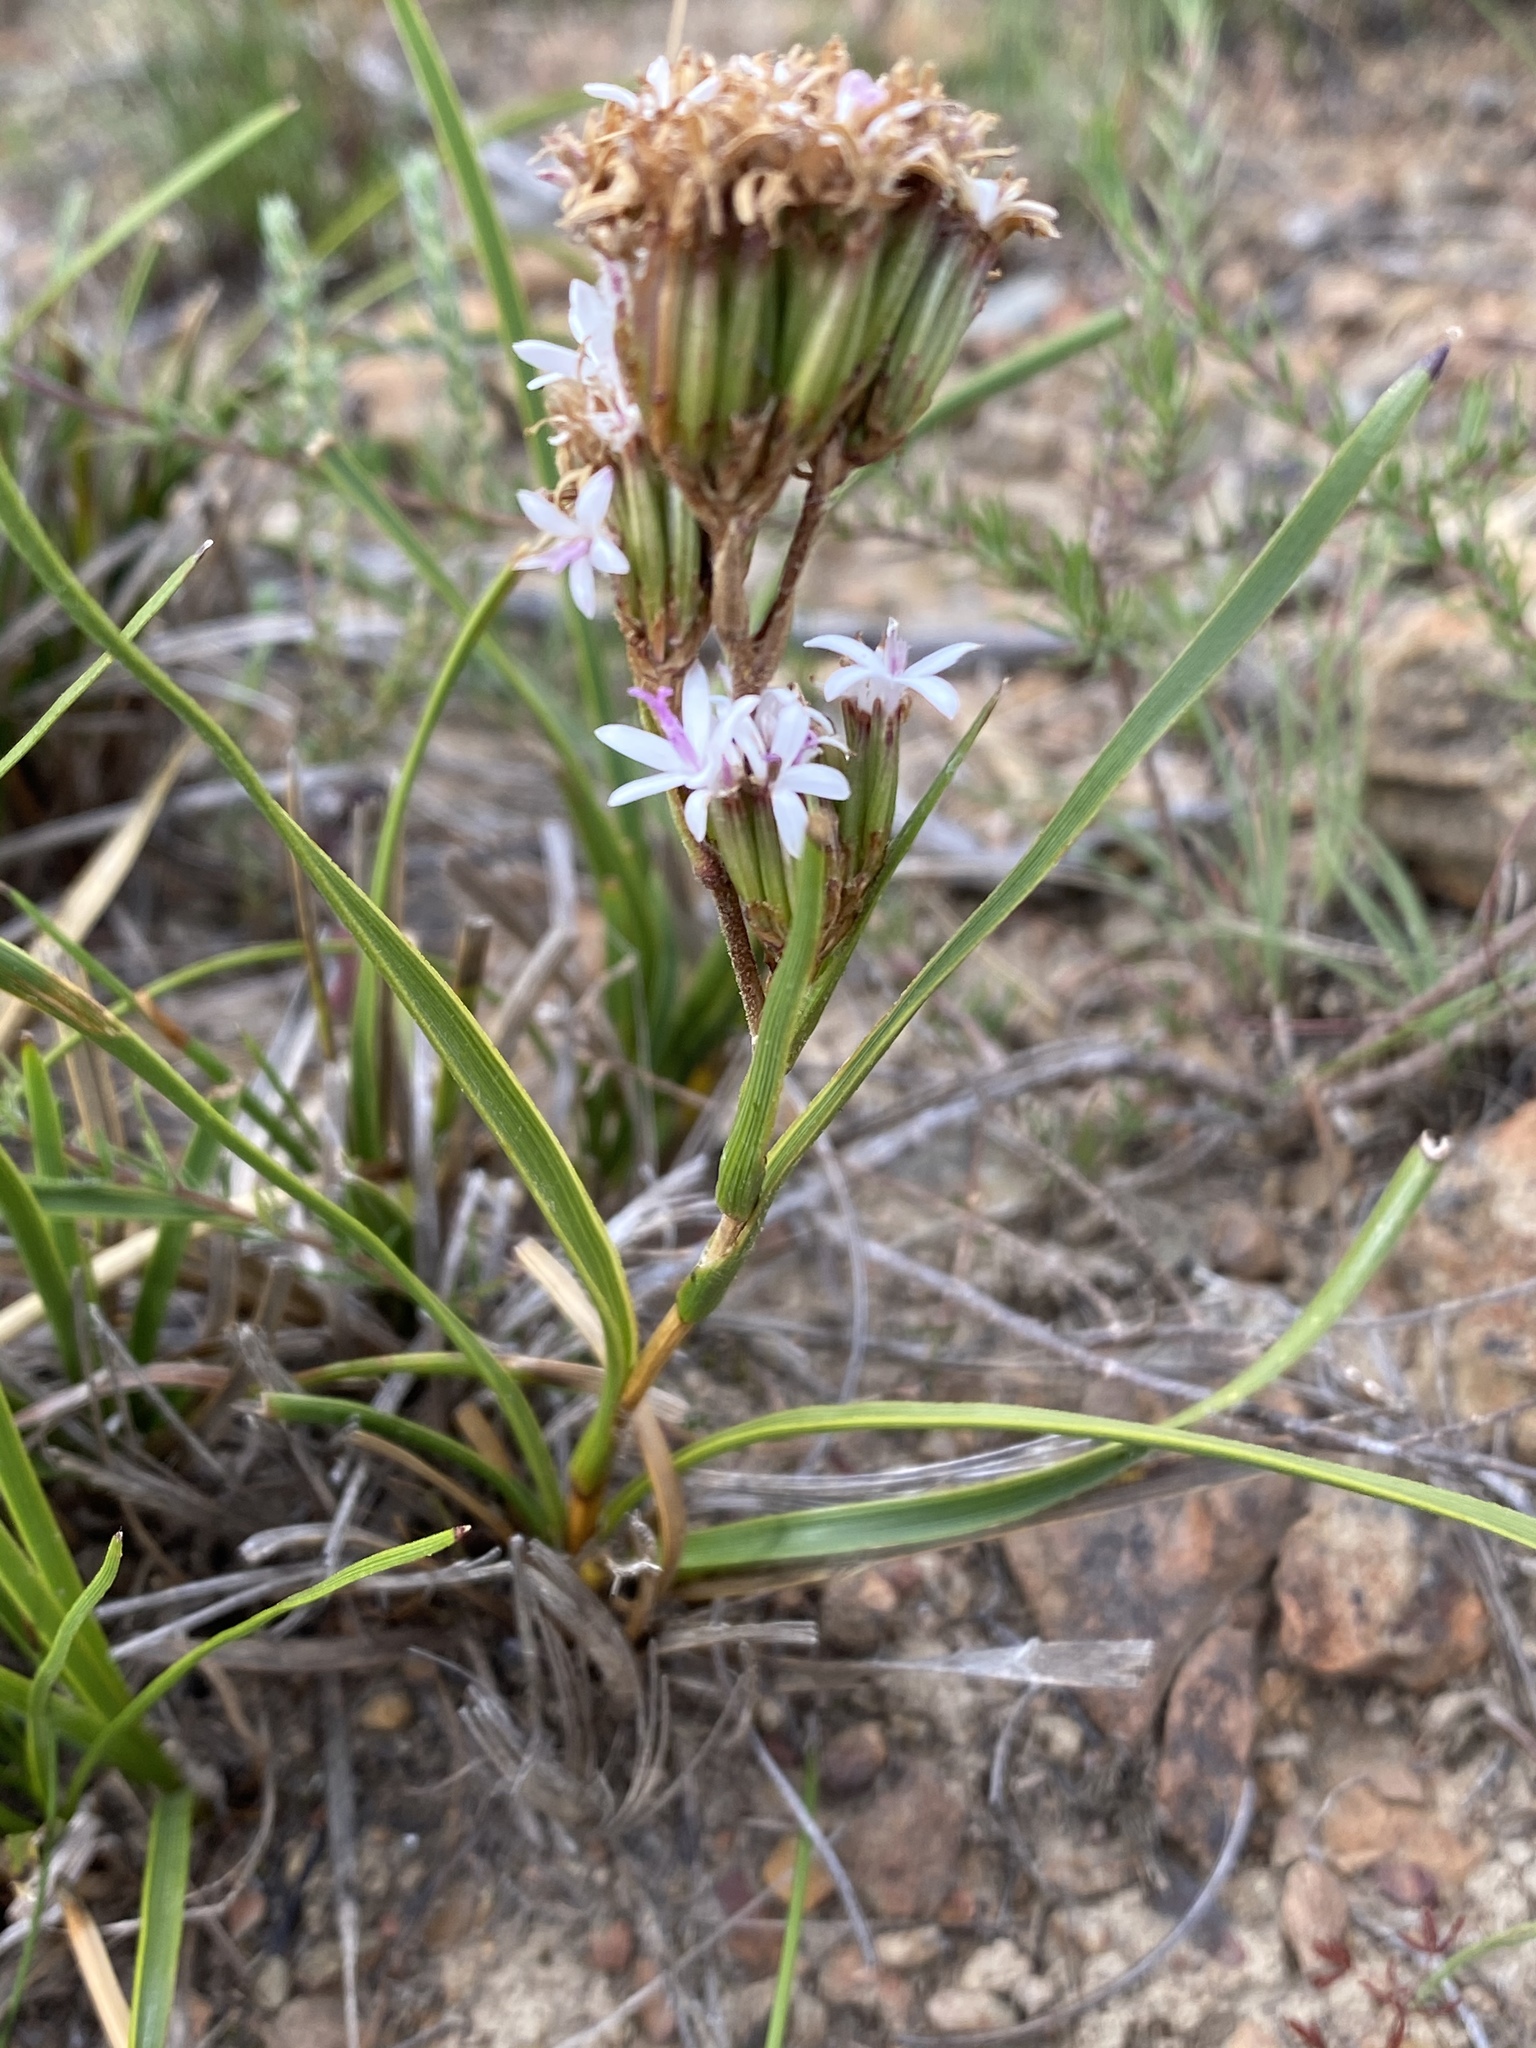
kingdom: Plantae
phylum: Tracheophyta
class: Magnoliopsida
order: Asterales
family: Asteraceae
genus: Corymbium
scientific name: Corymbium glabrum
